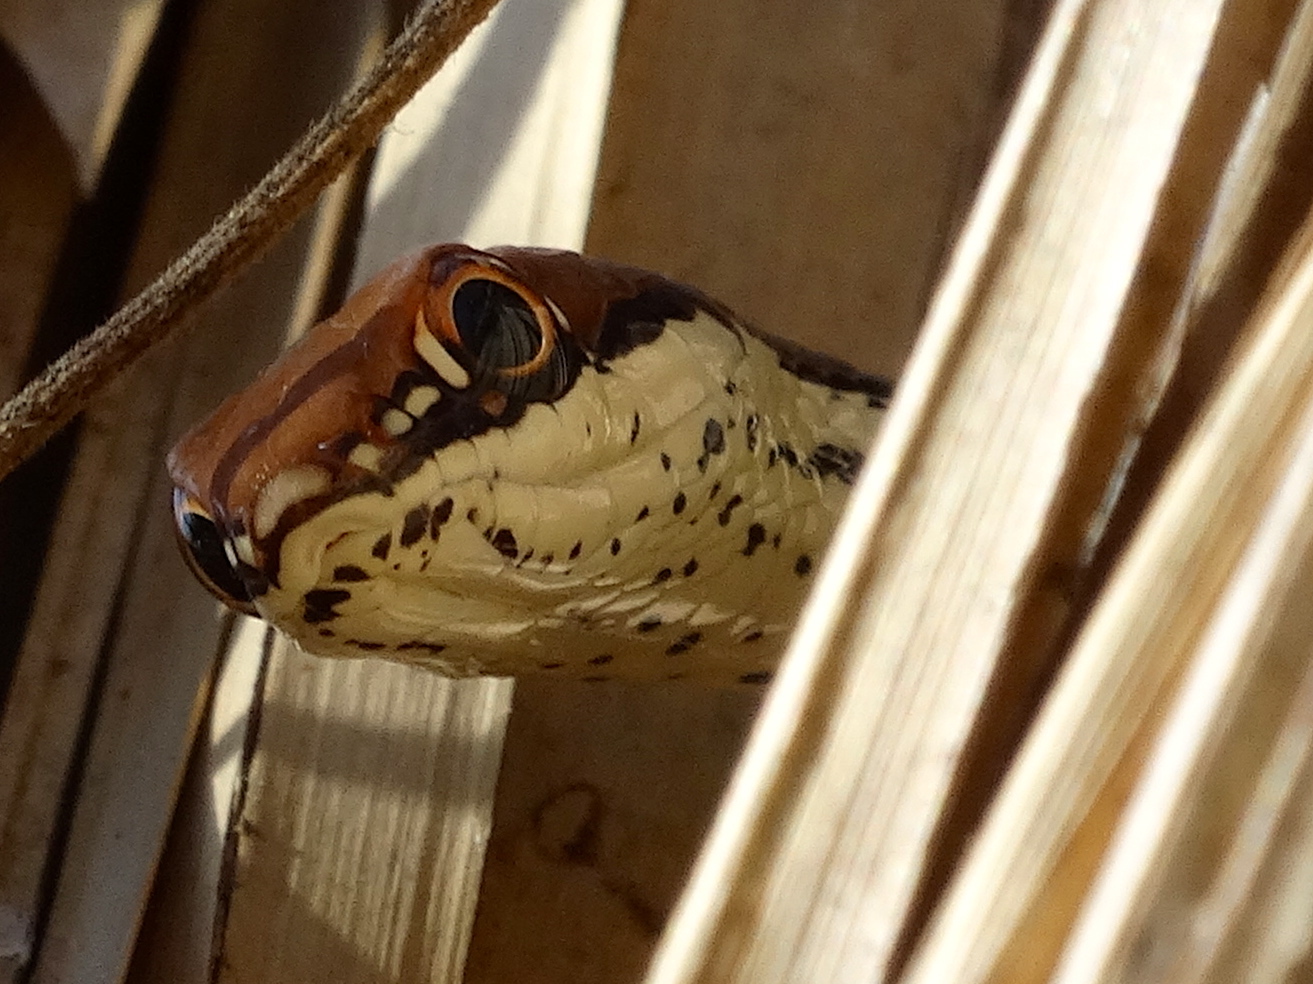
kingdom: Animalia
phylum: Chordata
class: Squamata
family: Colubridae
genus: Masticophis
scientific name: Masticophis bilineatus
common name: Sonoran whipsnake
